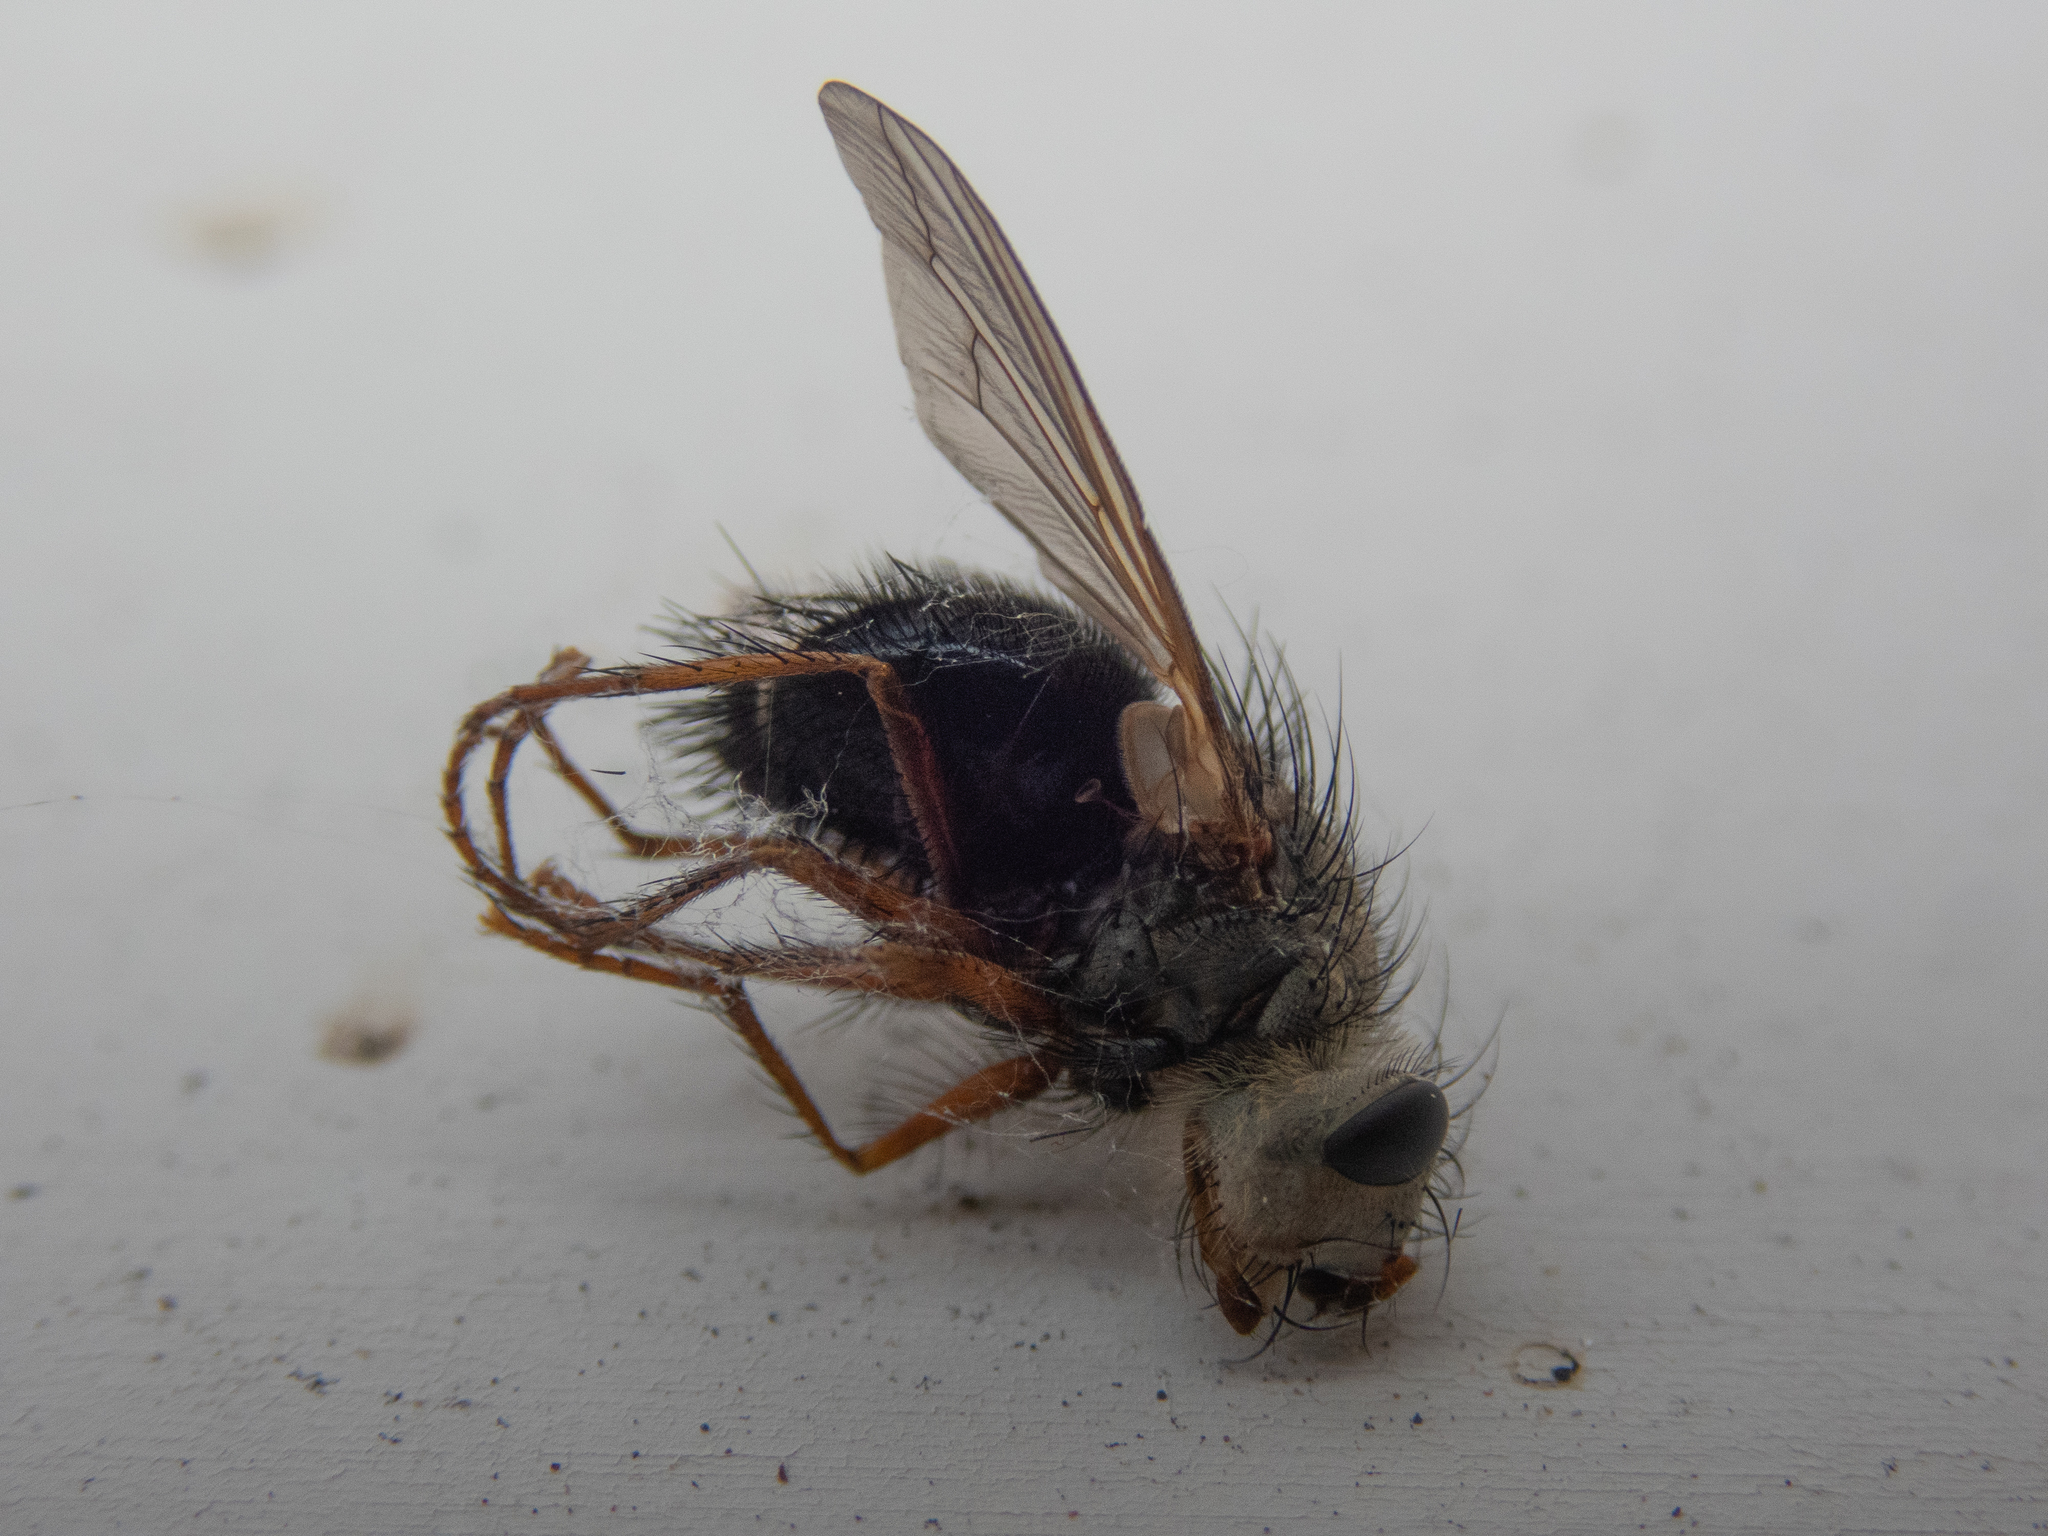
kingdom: Animalia
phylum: Arthropoda
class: Insecta
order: Diptera
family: Tachinidae
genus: Epalpus
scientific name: Epalpus signifer
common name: Early tachinid fly
